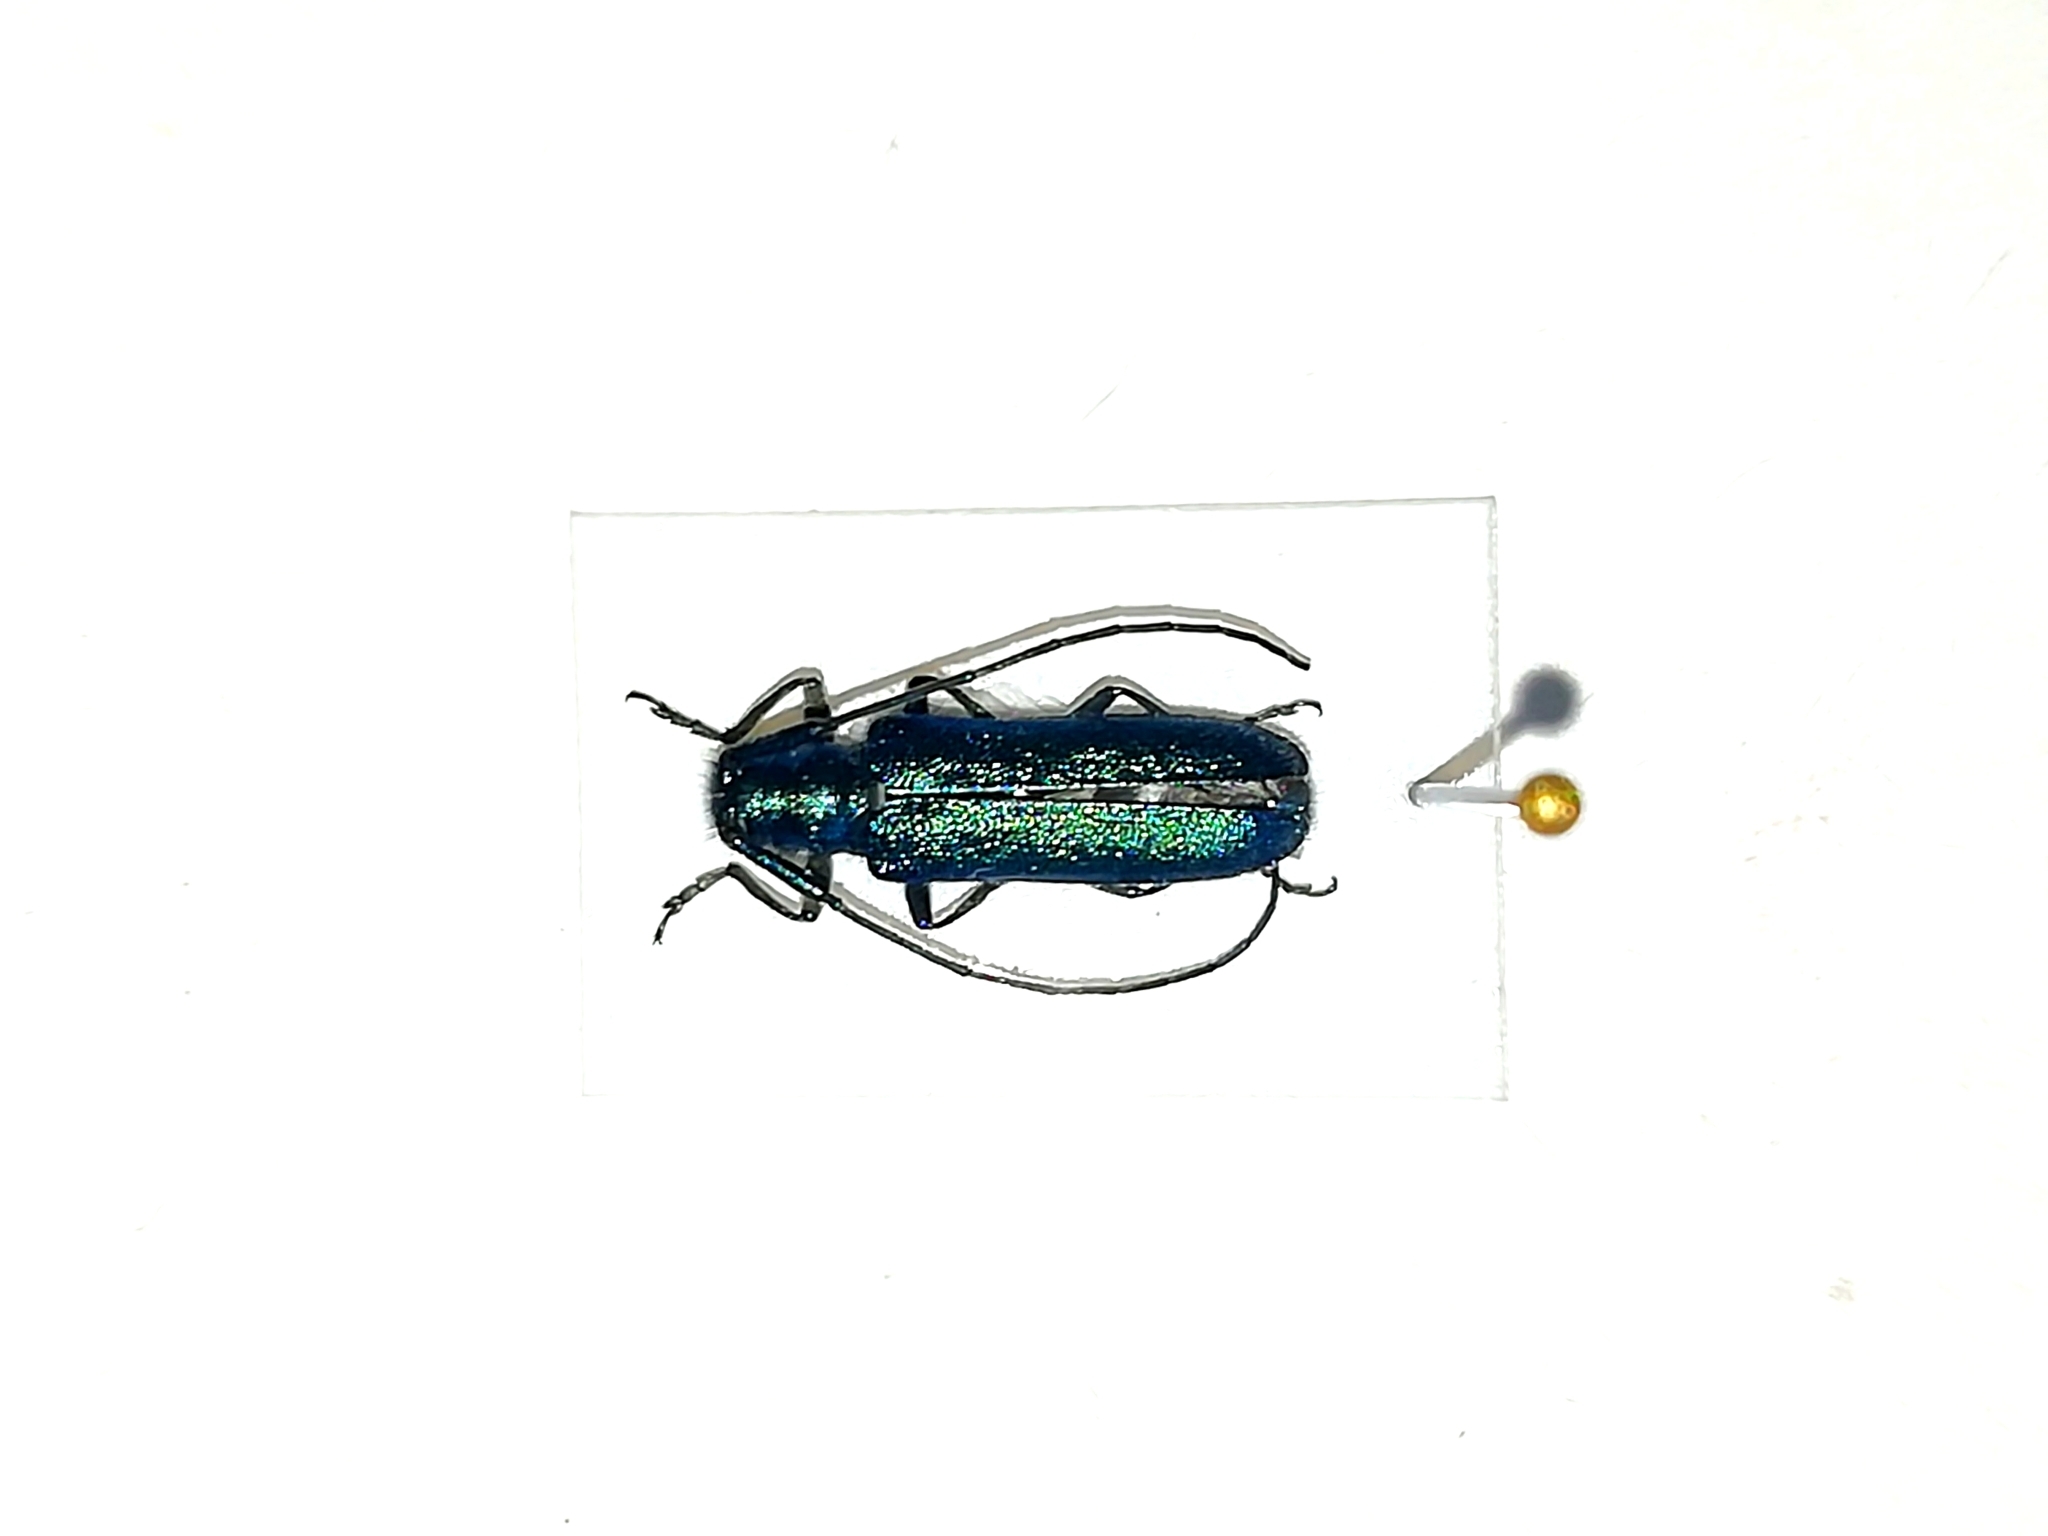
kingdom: Animalia
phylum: Arthropoda
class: Insecta
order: Coleoptera
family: Cerambycidae
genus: Agapanthia
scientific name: Agapanthia intermedia
